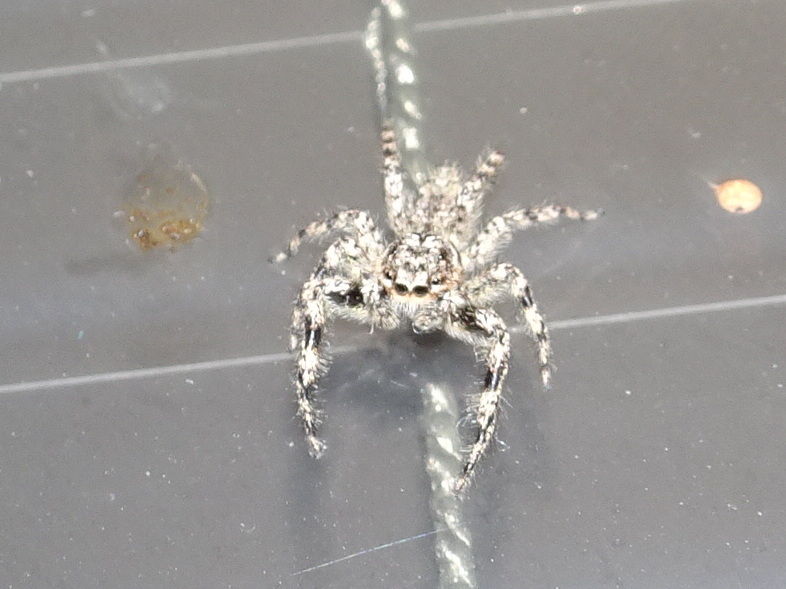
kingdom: Animalia
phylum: Arthropoda
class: Arachnida
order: Araneae
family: Salticidae
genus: Platycryptus
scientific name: Platycryptus undatus
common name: Tan jumping spider
